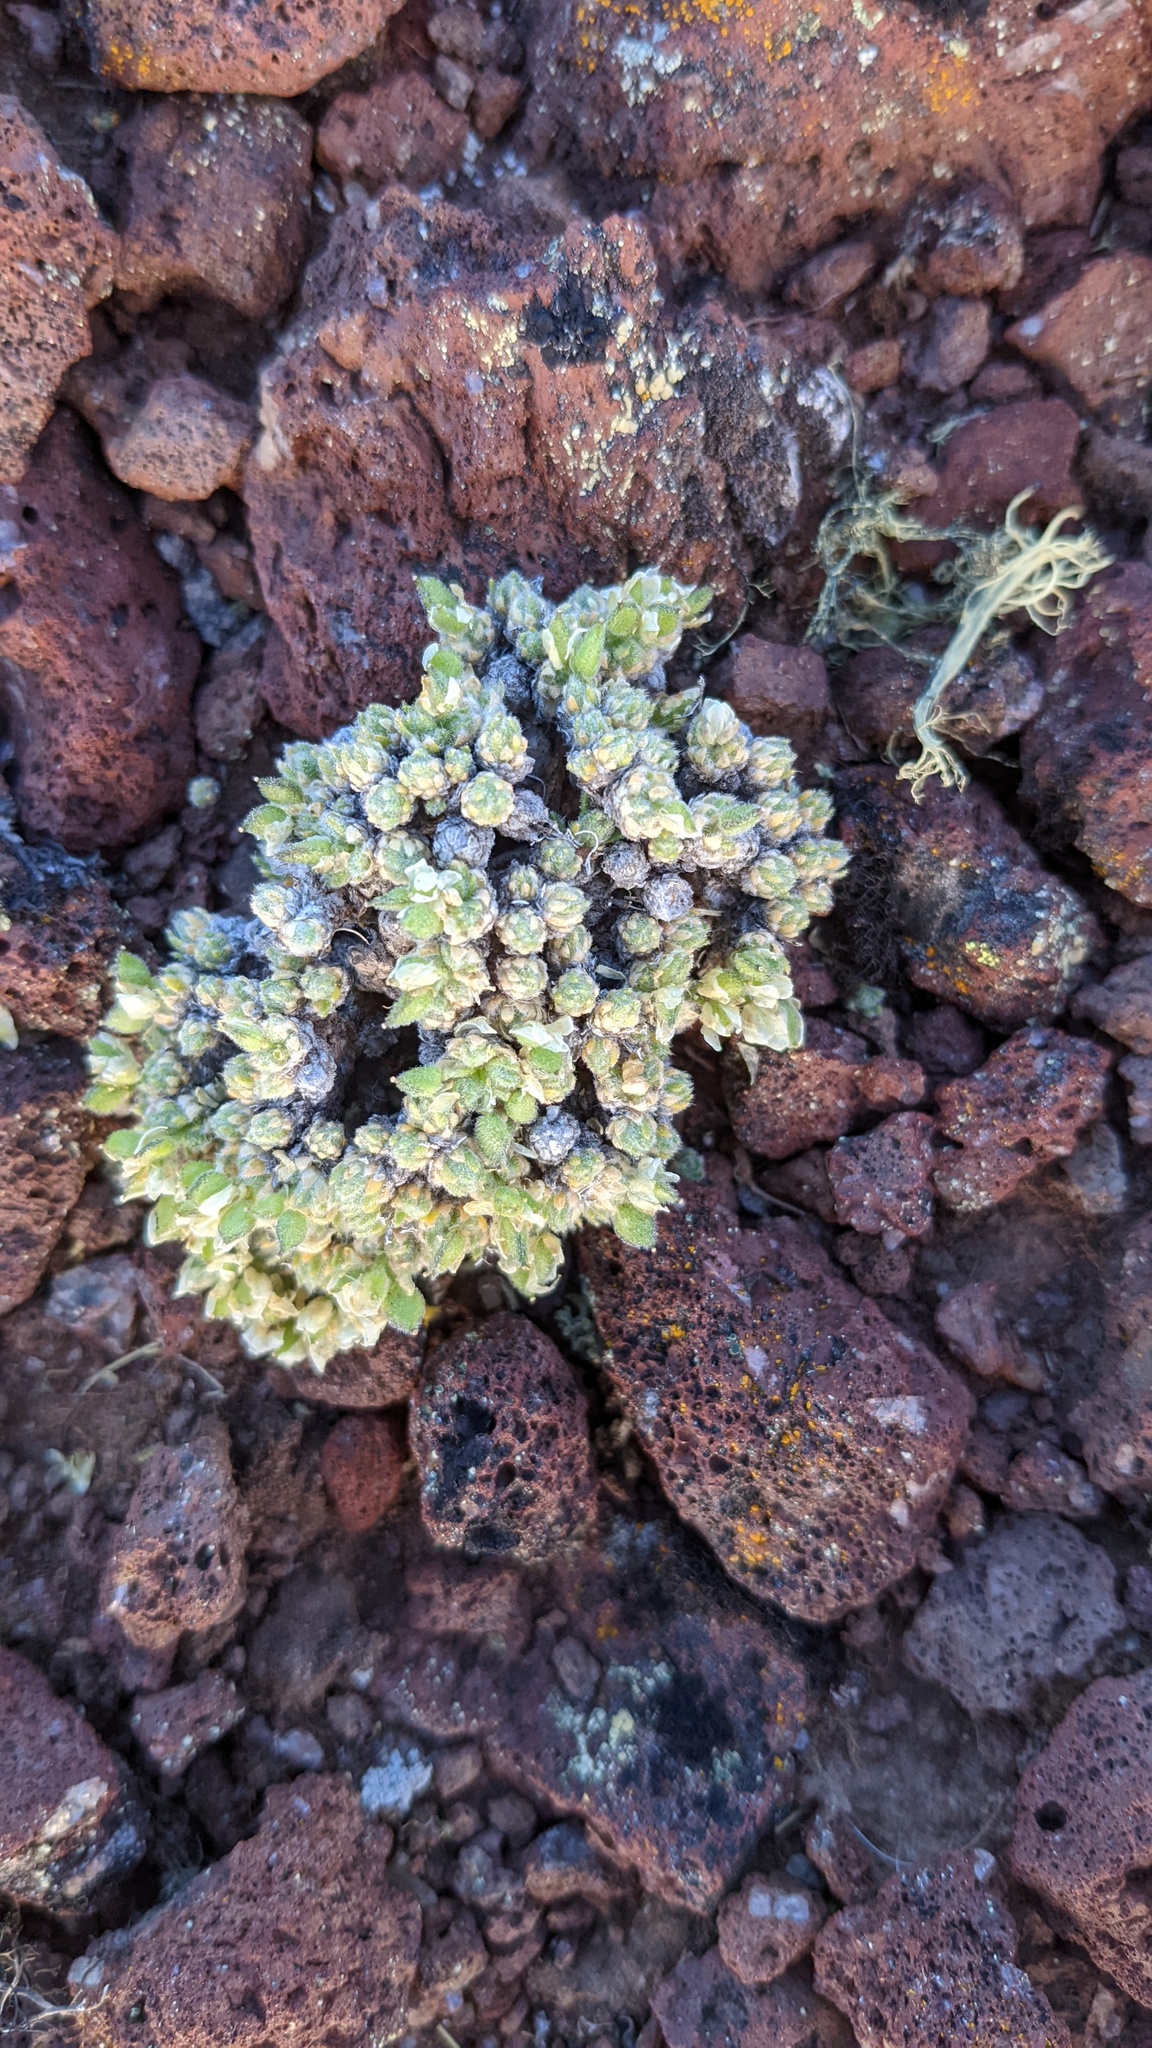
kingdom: Plantae
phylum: Tracheophyta
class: Magnoliopsida
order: Brassicales
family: Brassicaceae
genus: Draba
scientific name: Draba novolympica
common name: Olympic mountains draba
